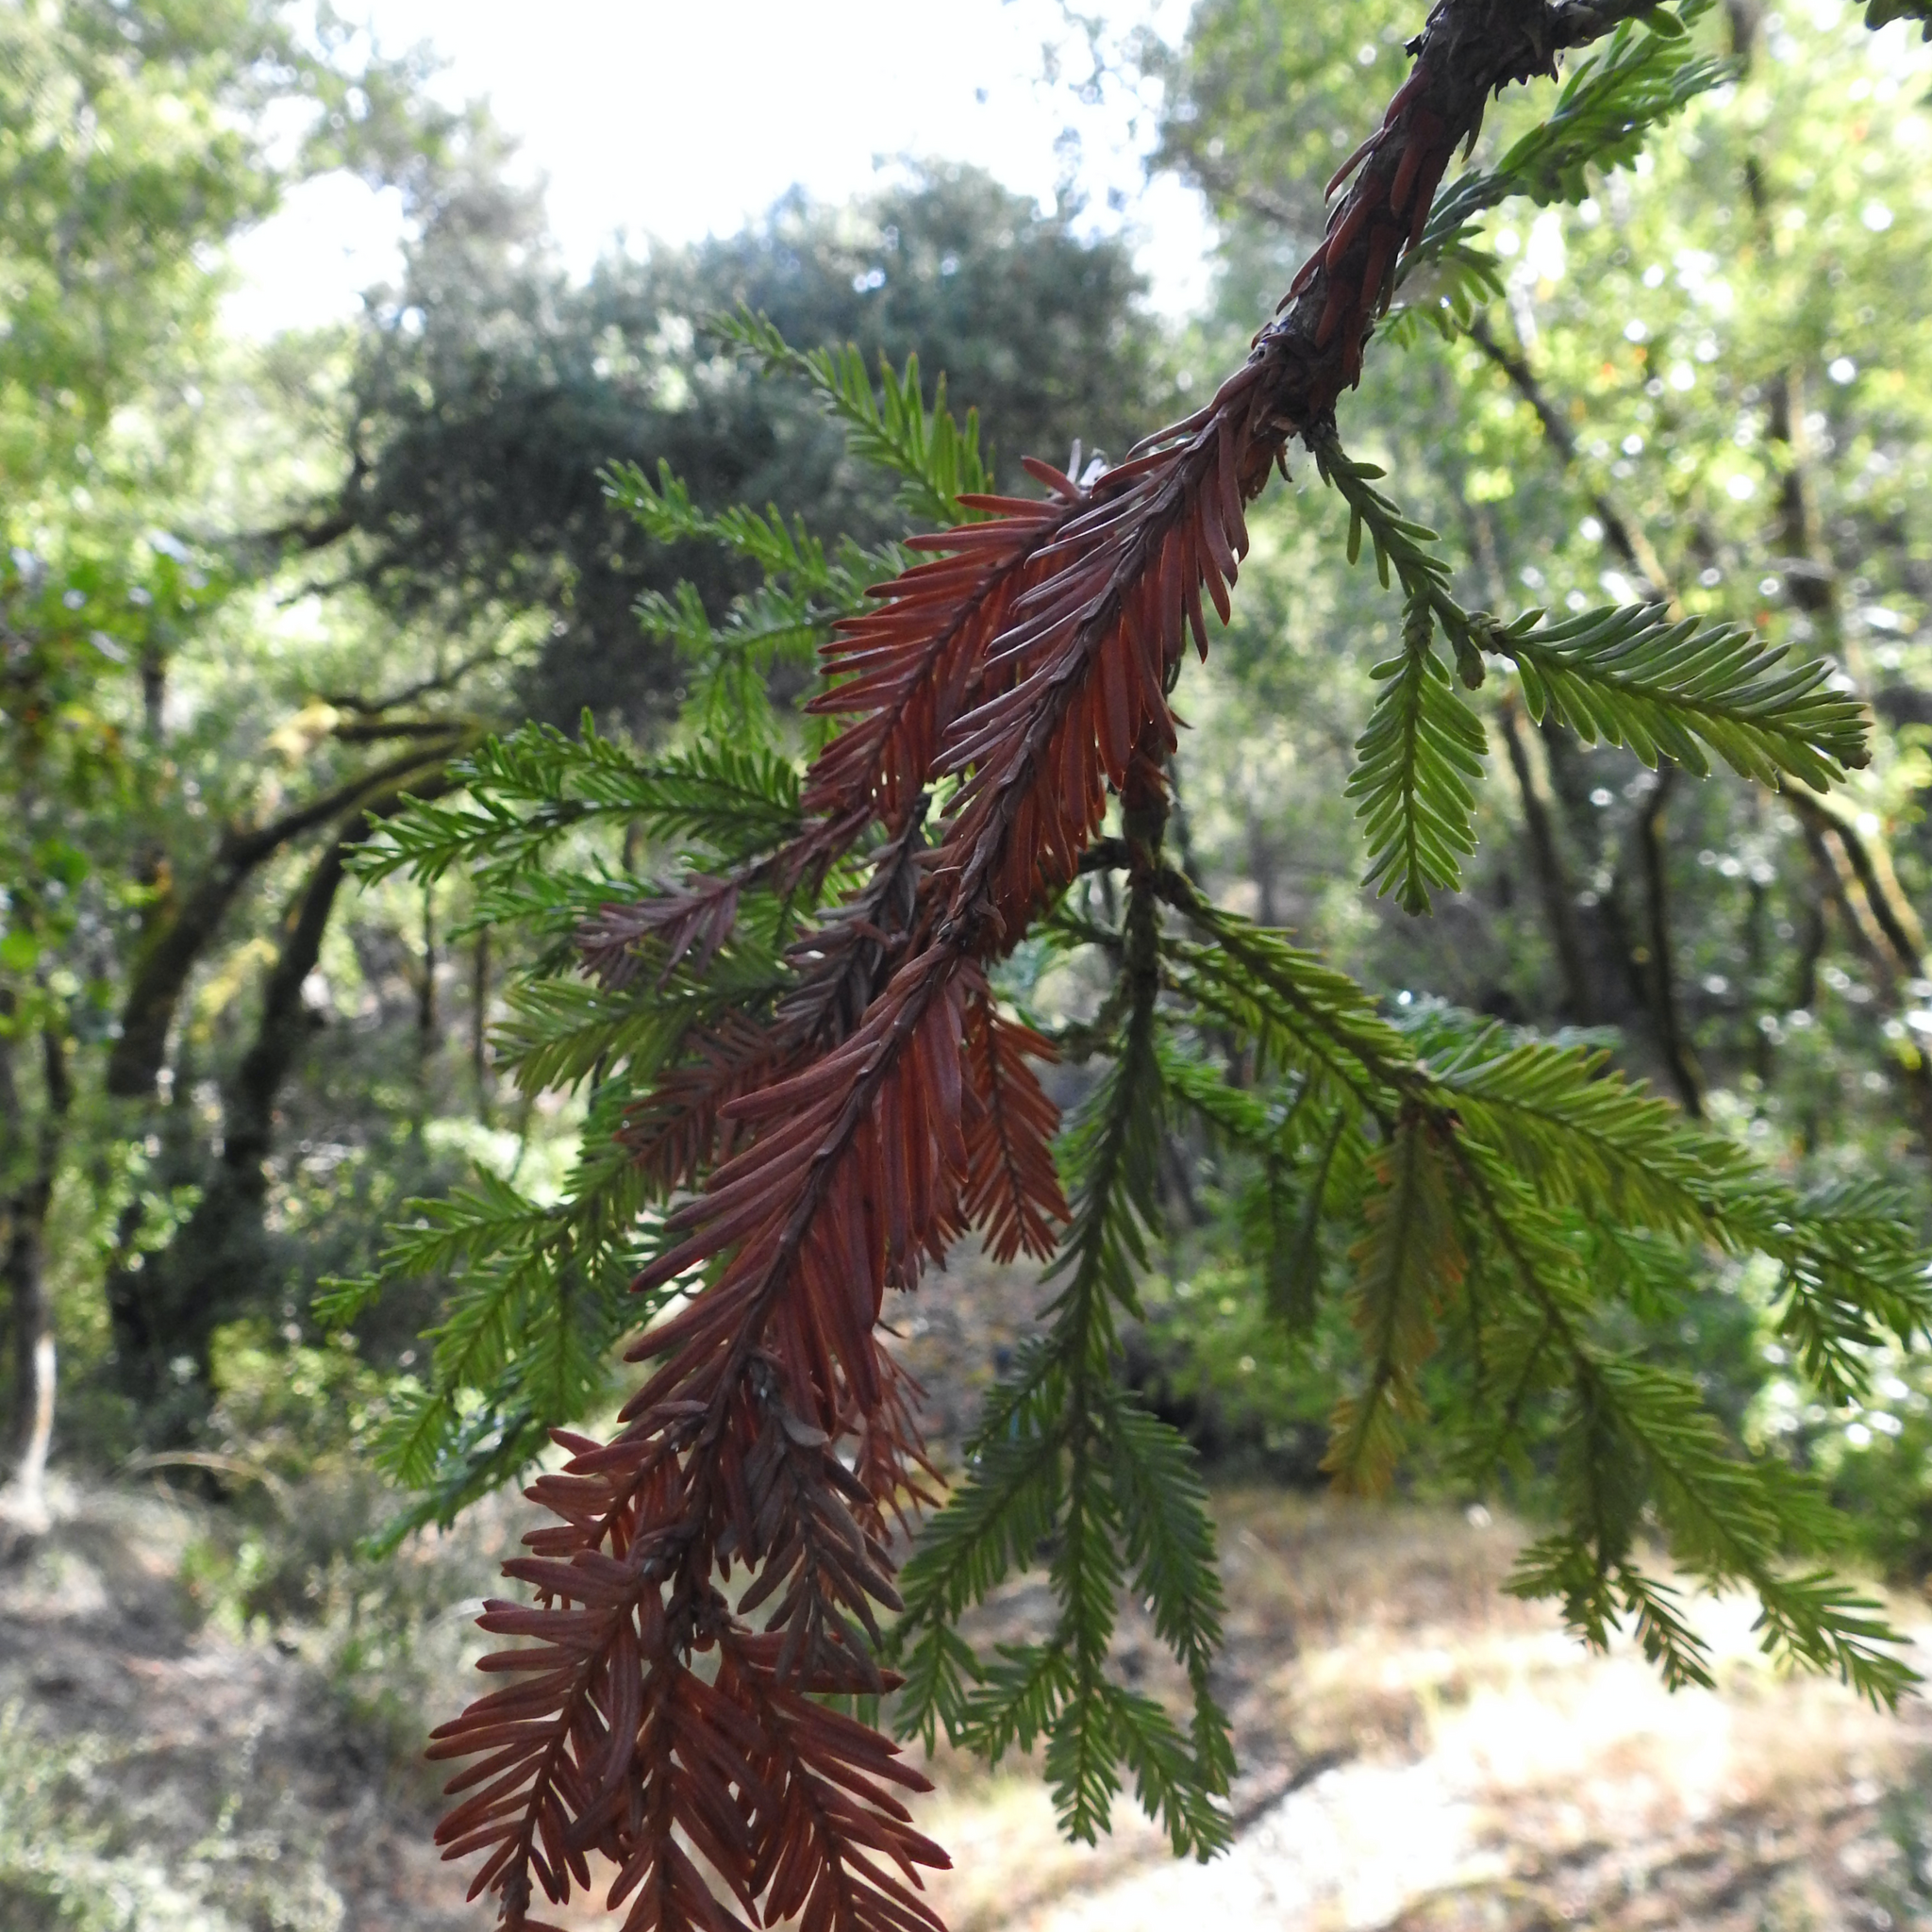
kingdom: Plantae
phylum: Tracheophyta
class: Pinopsida
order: Pinales
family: Cupressaceae
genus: Sequoia
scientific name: Sequoia sempervirens
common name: Coast redwood
